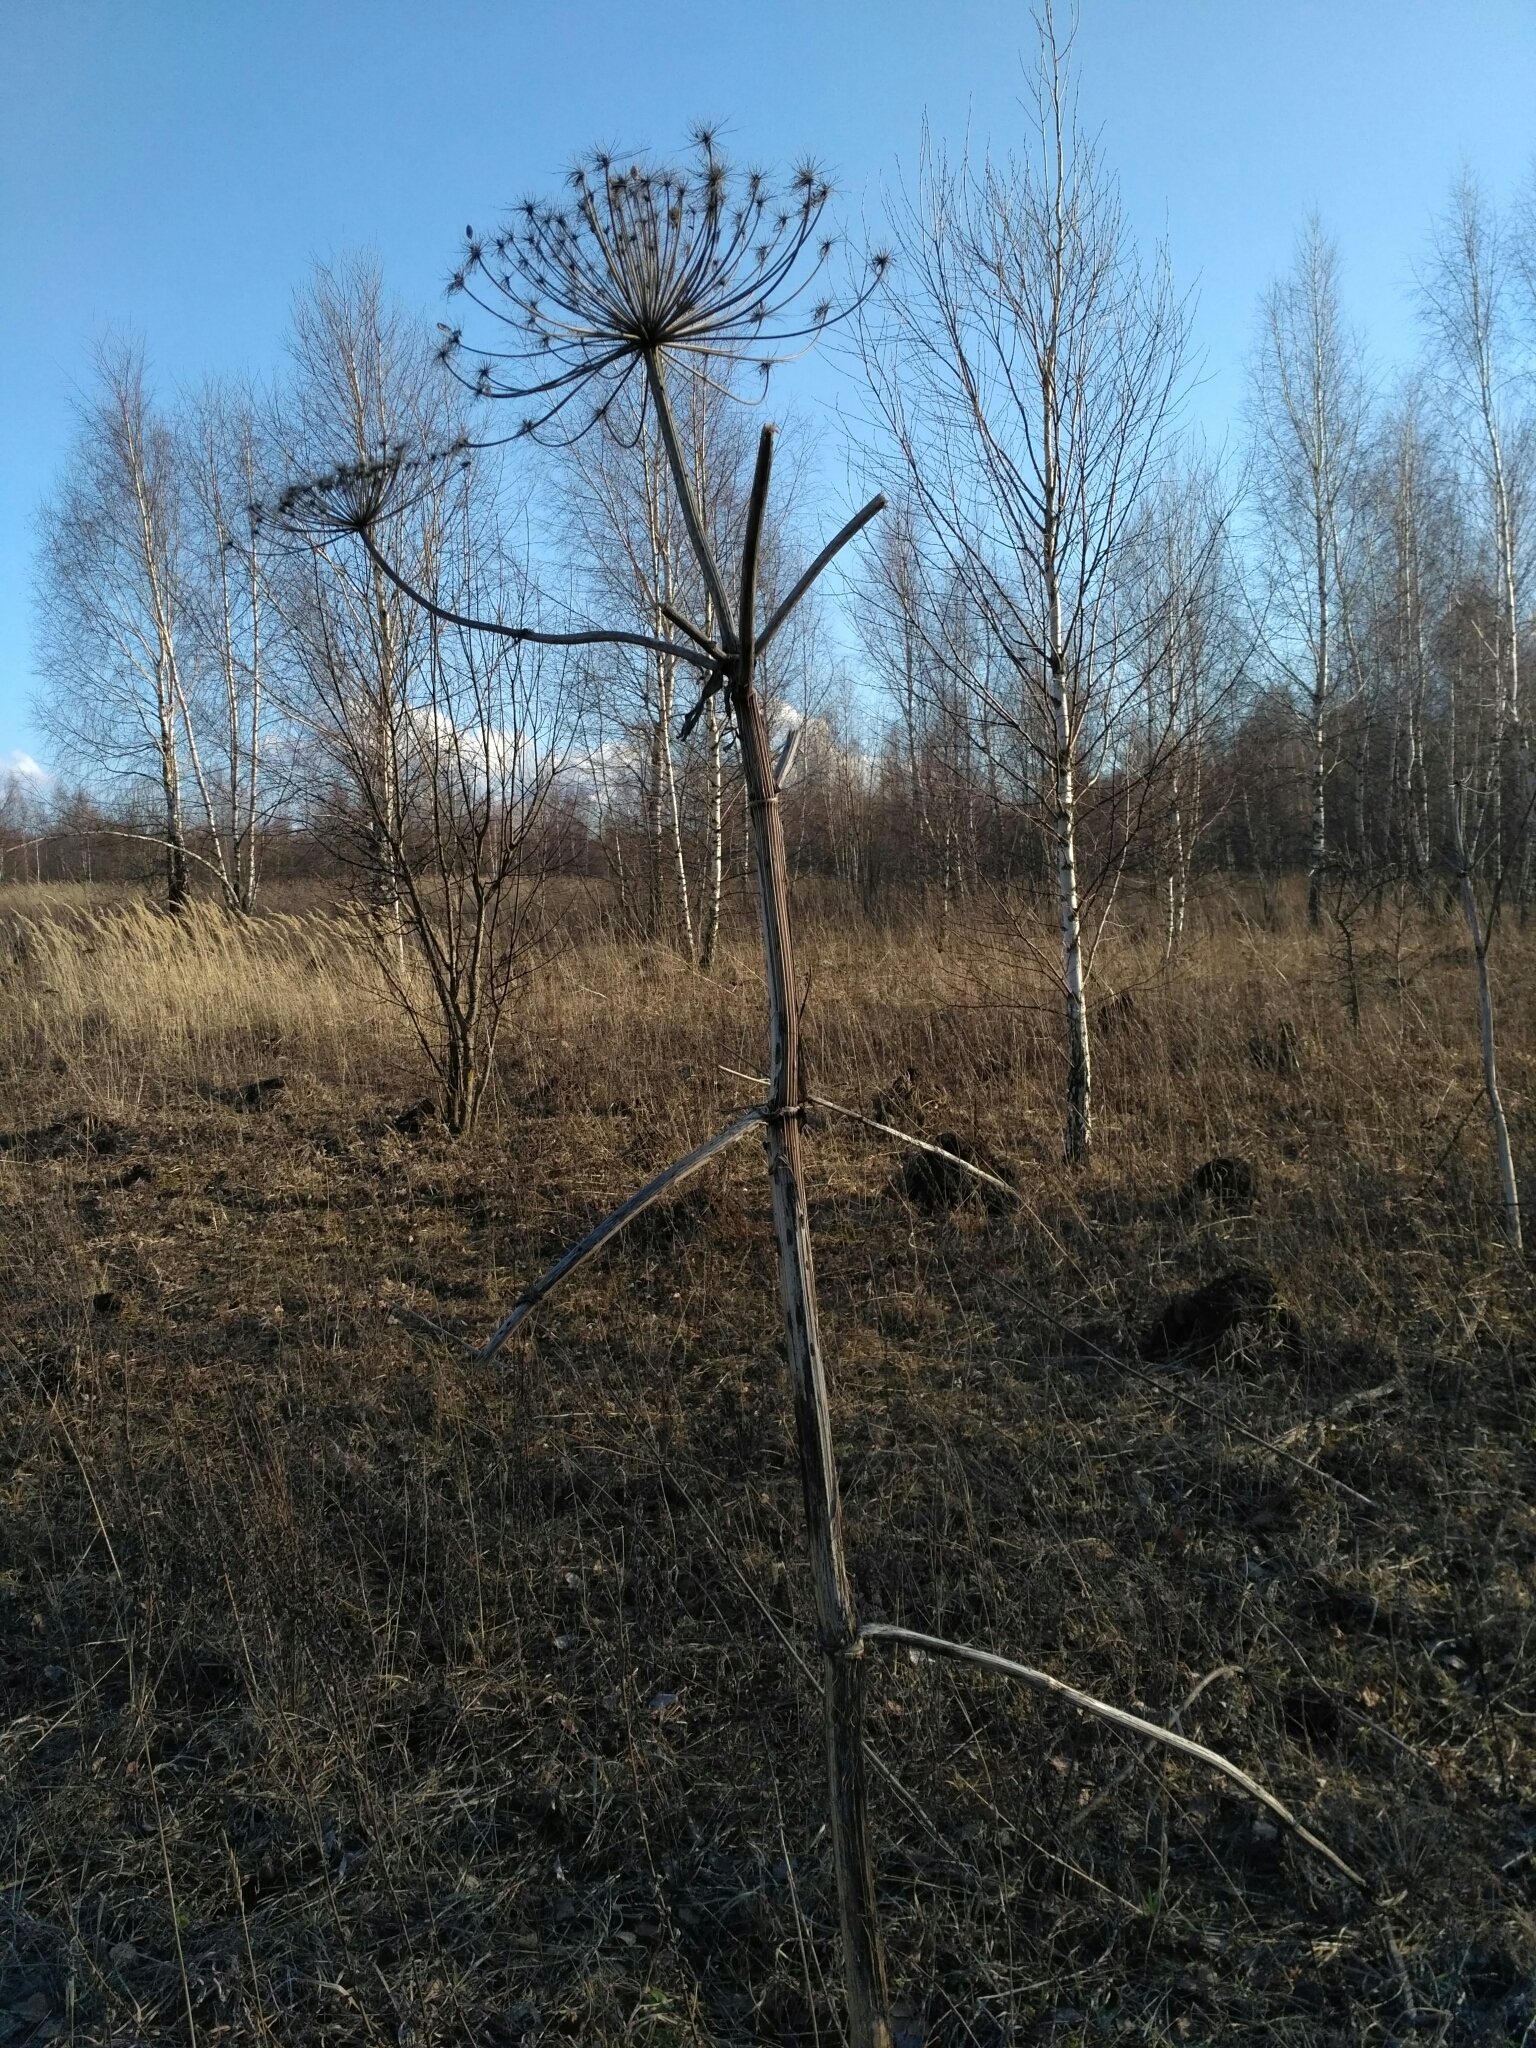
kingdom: Plantae
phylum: Tracheophyta
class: Magnoliopsida
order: Apiales
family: Apiaceae
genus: Heracleum
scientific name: Heracleum sosnowskyi
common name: Sosnowsky's hogweed
